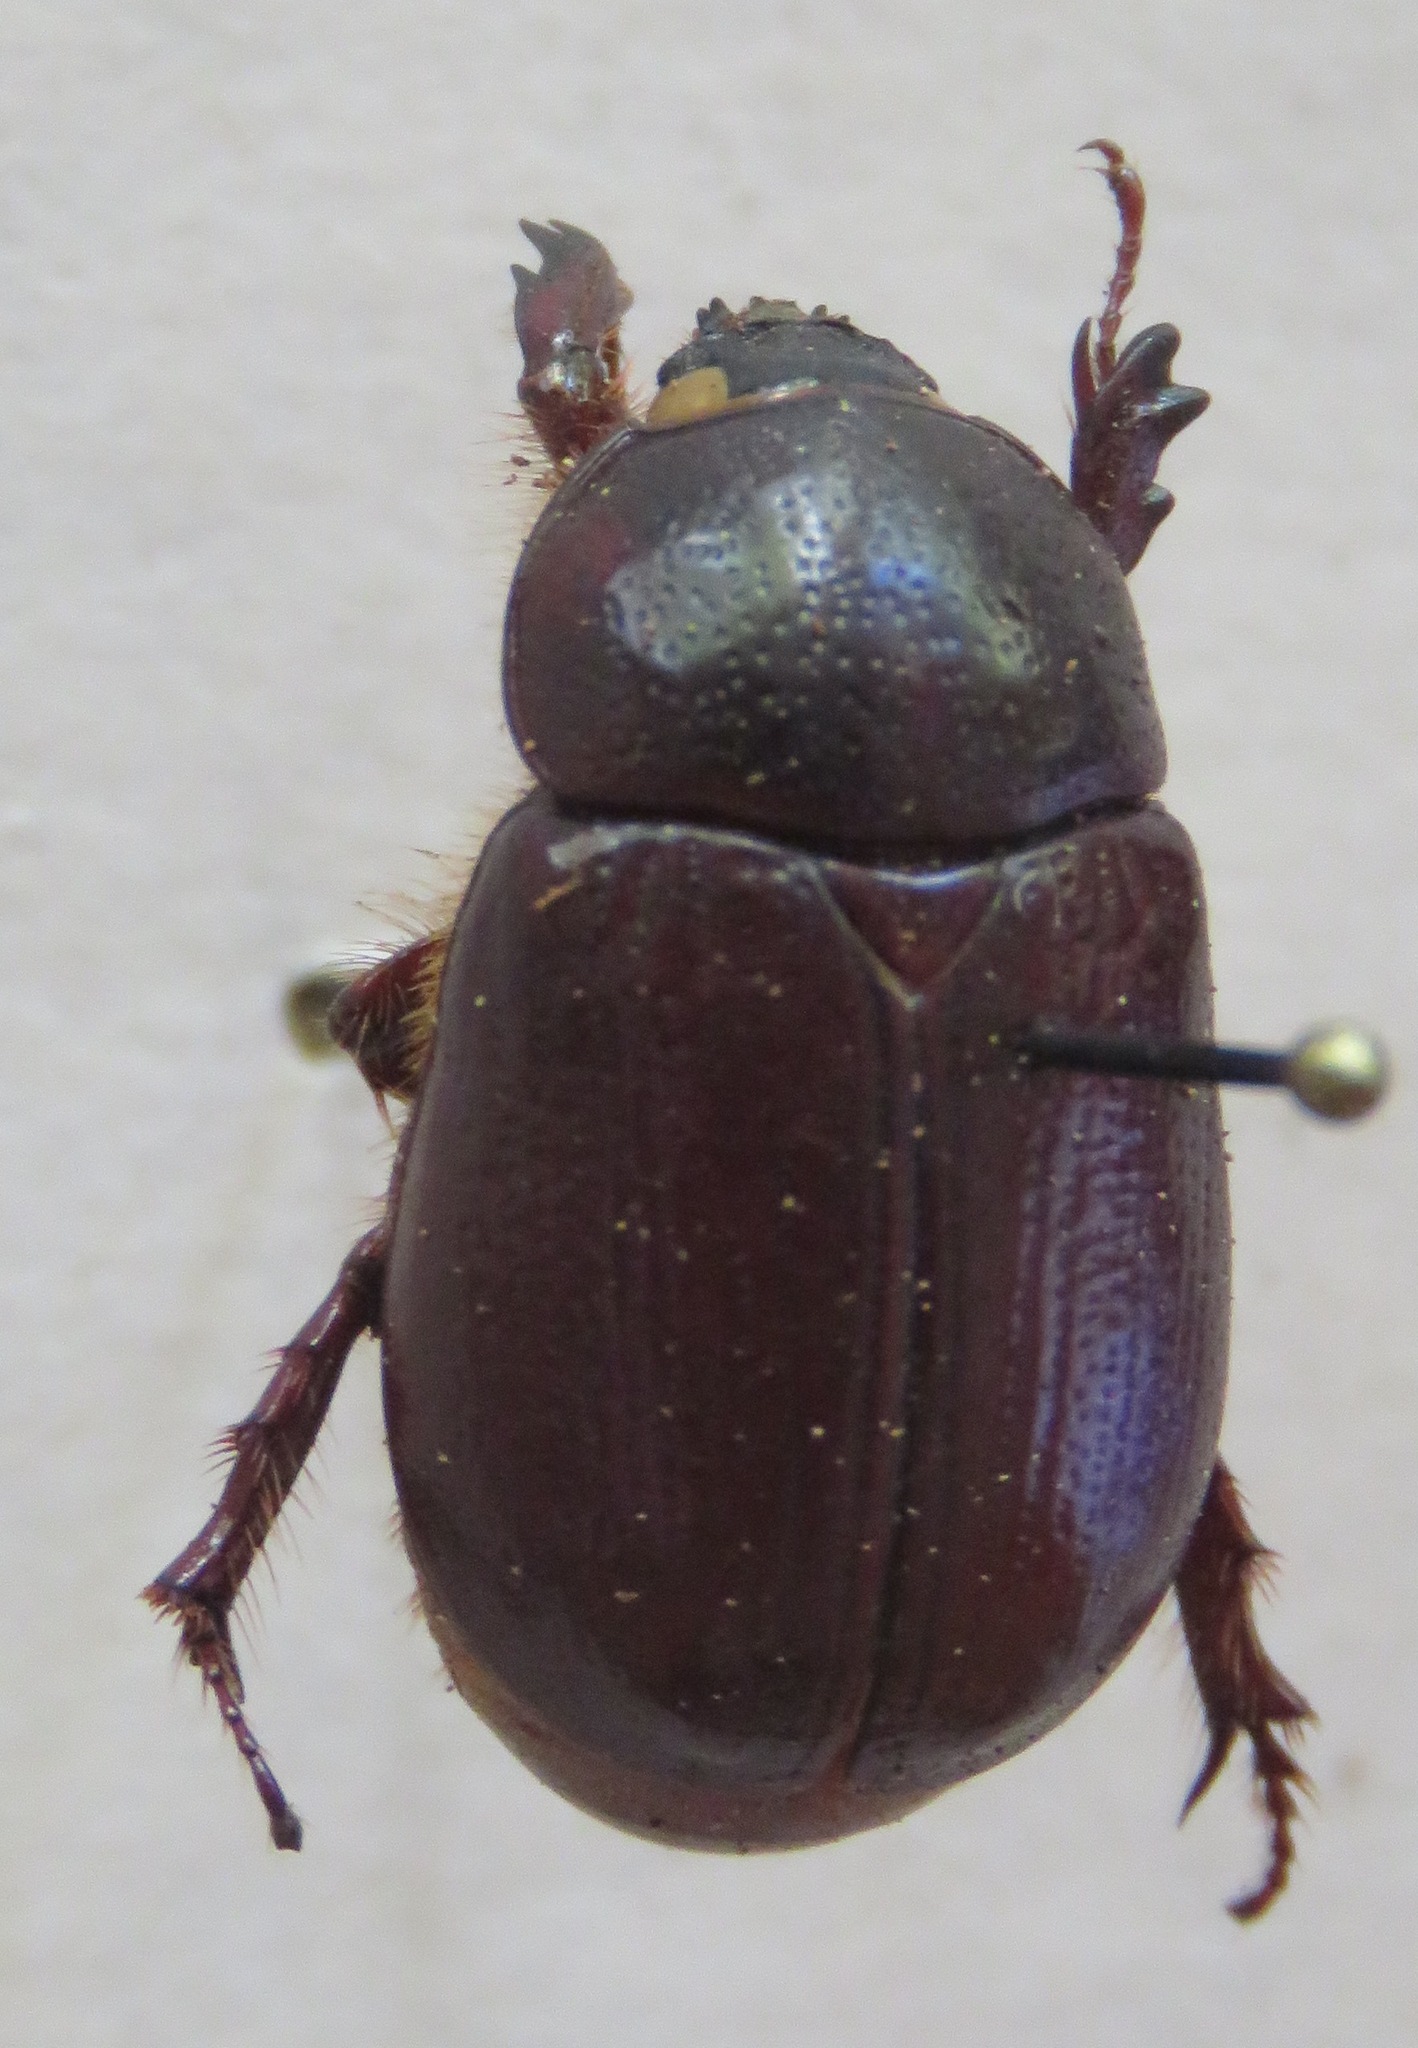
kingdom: Animalia
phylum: Arthropoda
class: Insecta
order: Coleoptera
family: Scarabaeidae
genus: Ligyrus
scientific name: Ligyrus nasutus
